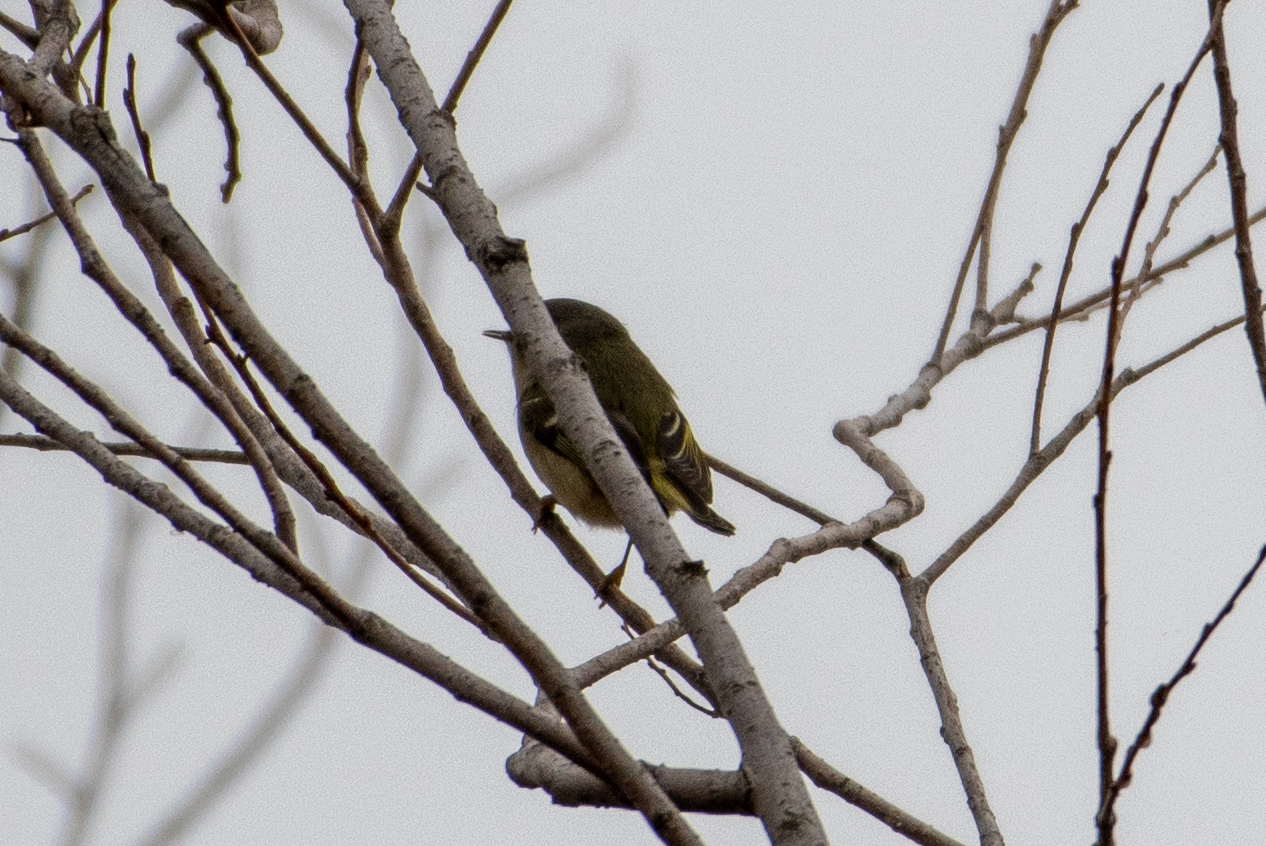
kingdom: Animalia
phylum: Chordata
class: Aves
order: Passeriformes
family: Regulidae
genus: Regulus
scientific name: Regulus calendula
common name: Ruby-crowned kinglet
